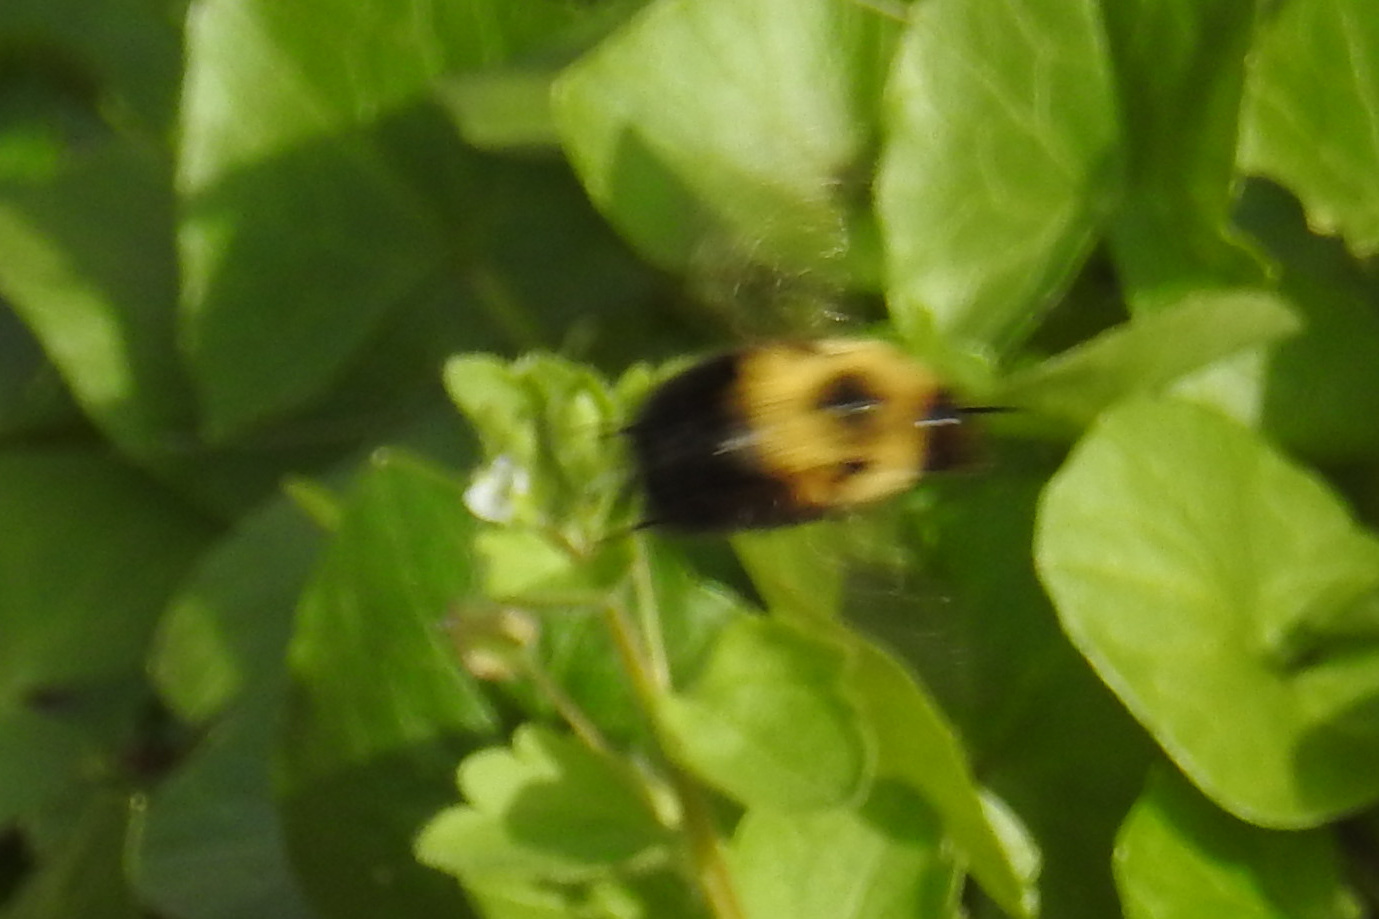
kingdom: Animalia
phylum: Arthropoda
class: Insecta
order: Hymenoptera
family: Apidae
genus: Bombus
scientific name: Bombus bimaculatus
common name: Two-spotted bumble bee
